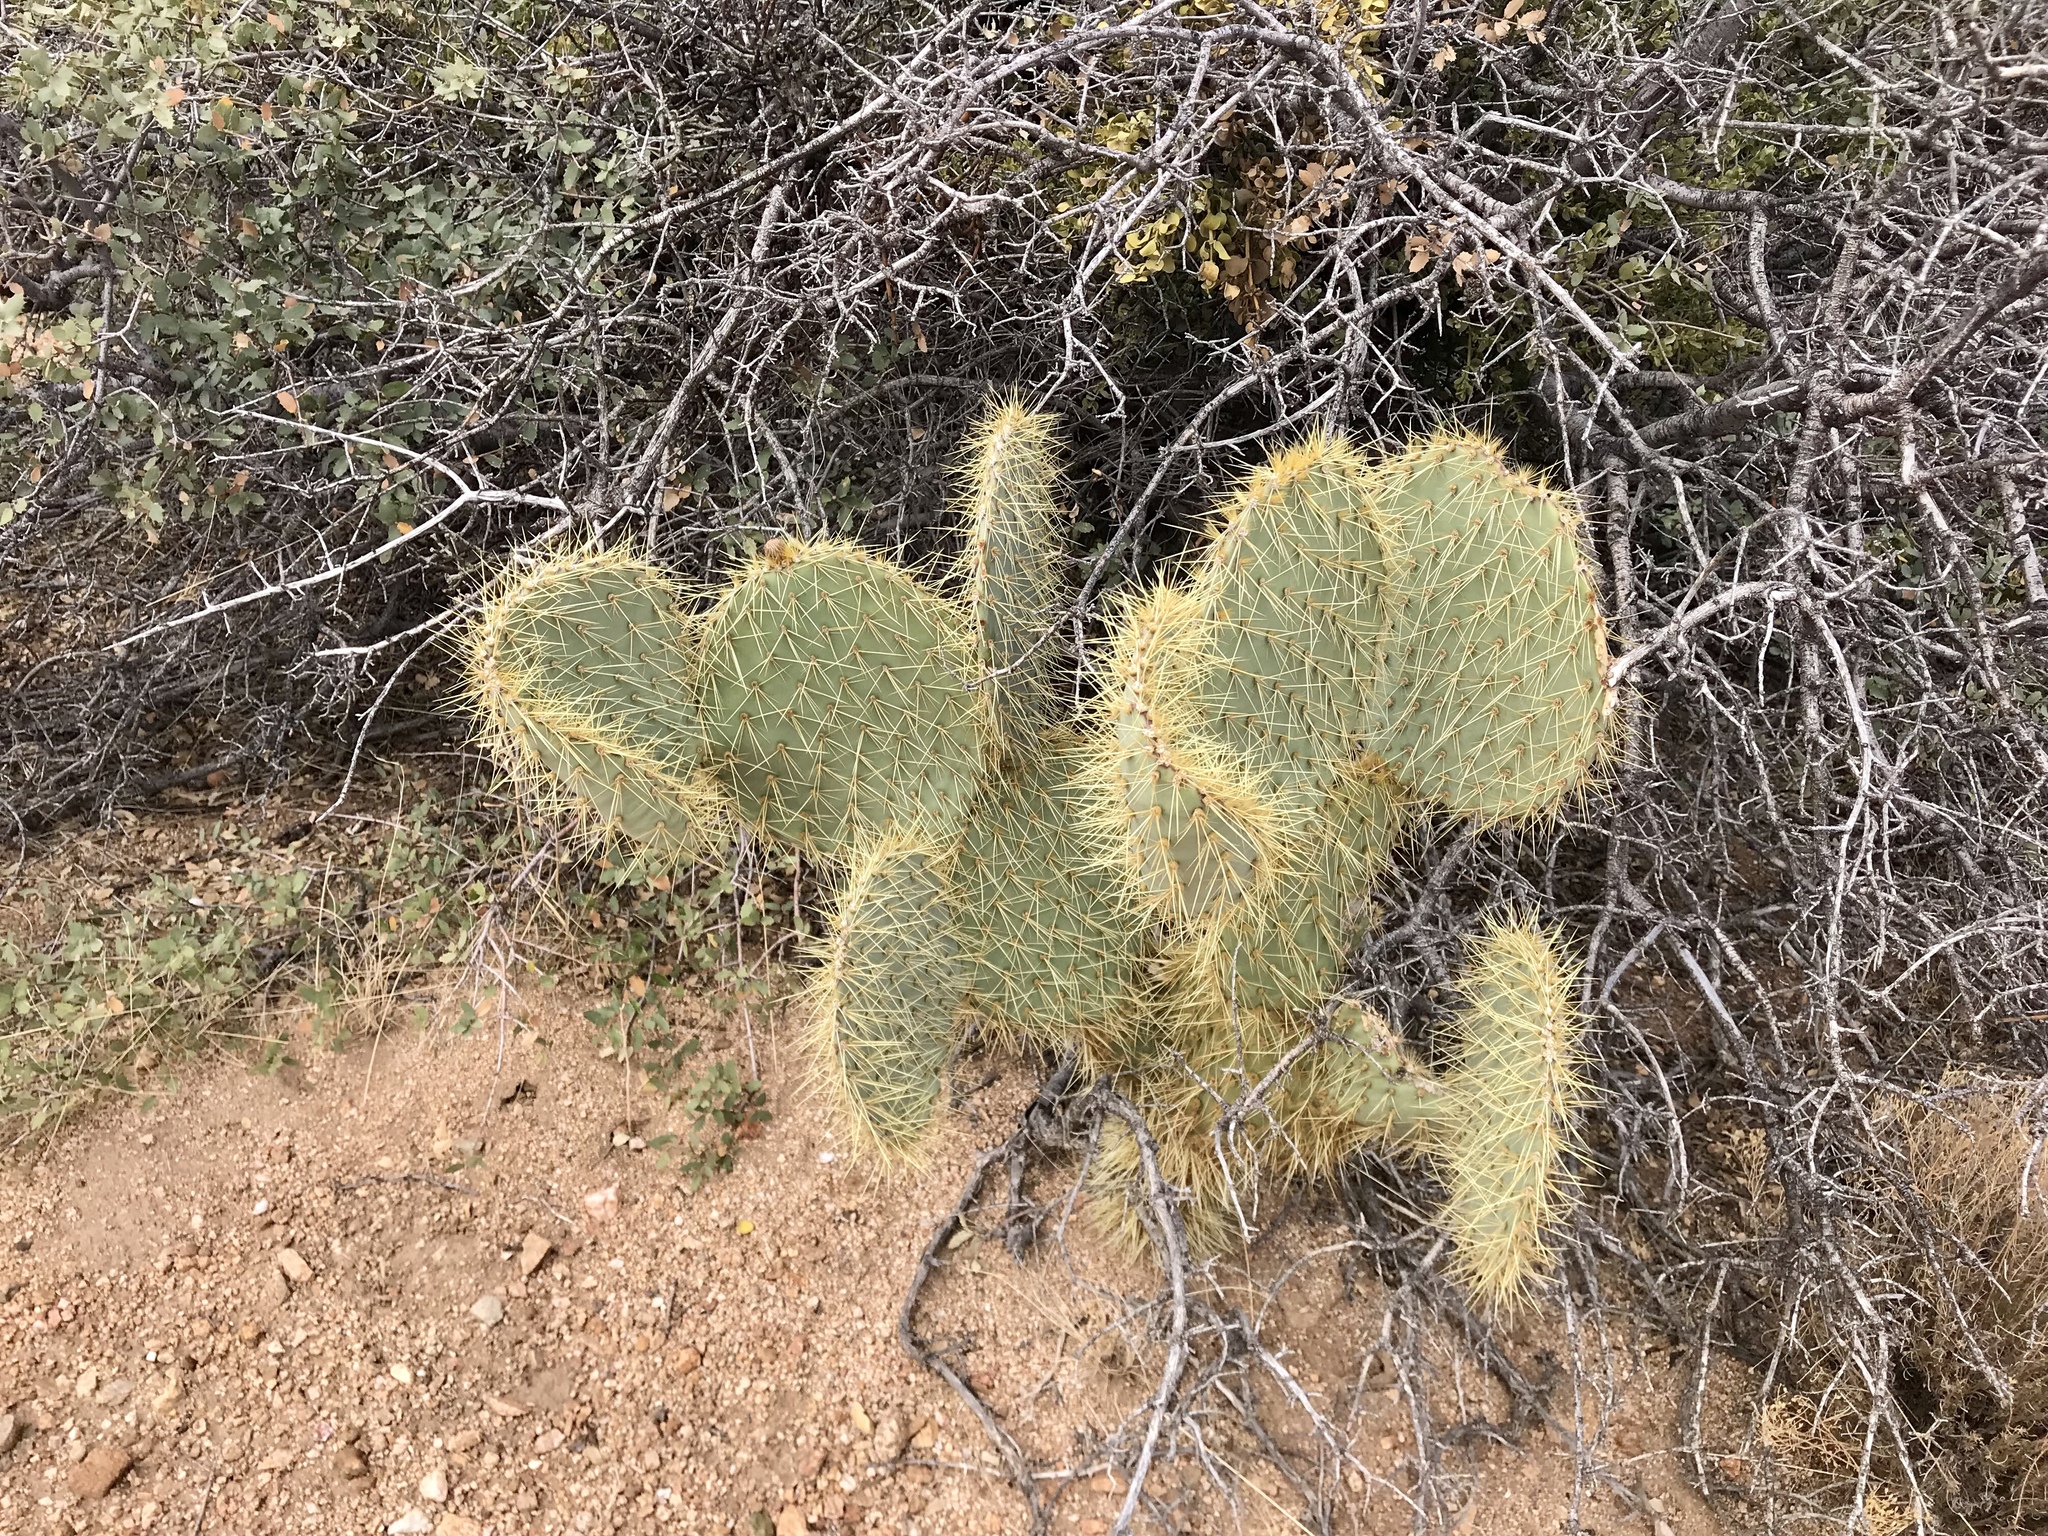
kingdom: Plantae
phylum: Tracheophyta
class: Magnoliopsida
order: Caryophyllales
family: Cactaceae
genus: Opuntia
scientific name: Opuntia chlorotica
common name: Dollar-joint prickly-pear
